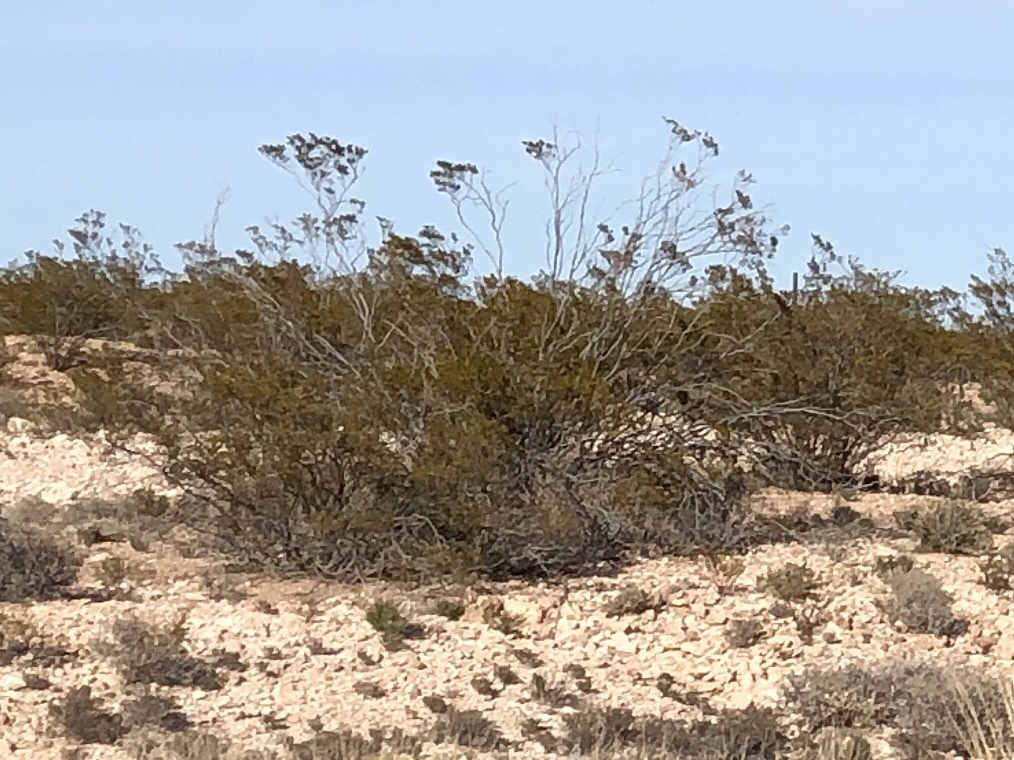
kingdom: Plantae
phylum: Tracheophyta
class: Magnoliopsida
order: Zygophyllales
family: Zygophyllaceae
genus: Larrea
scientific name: Larrea tridentata
